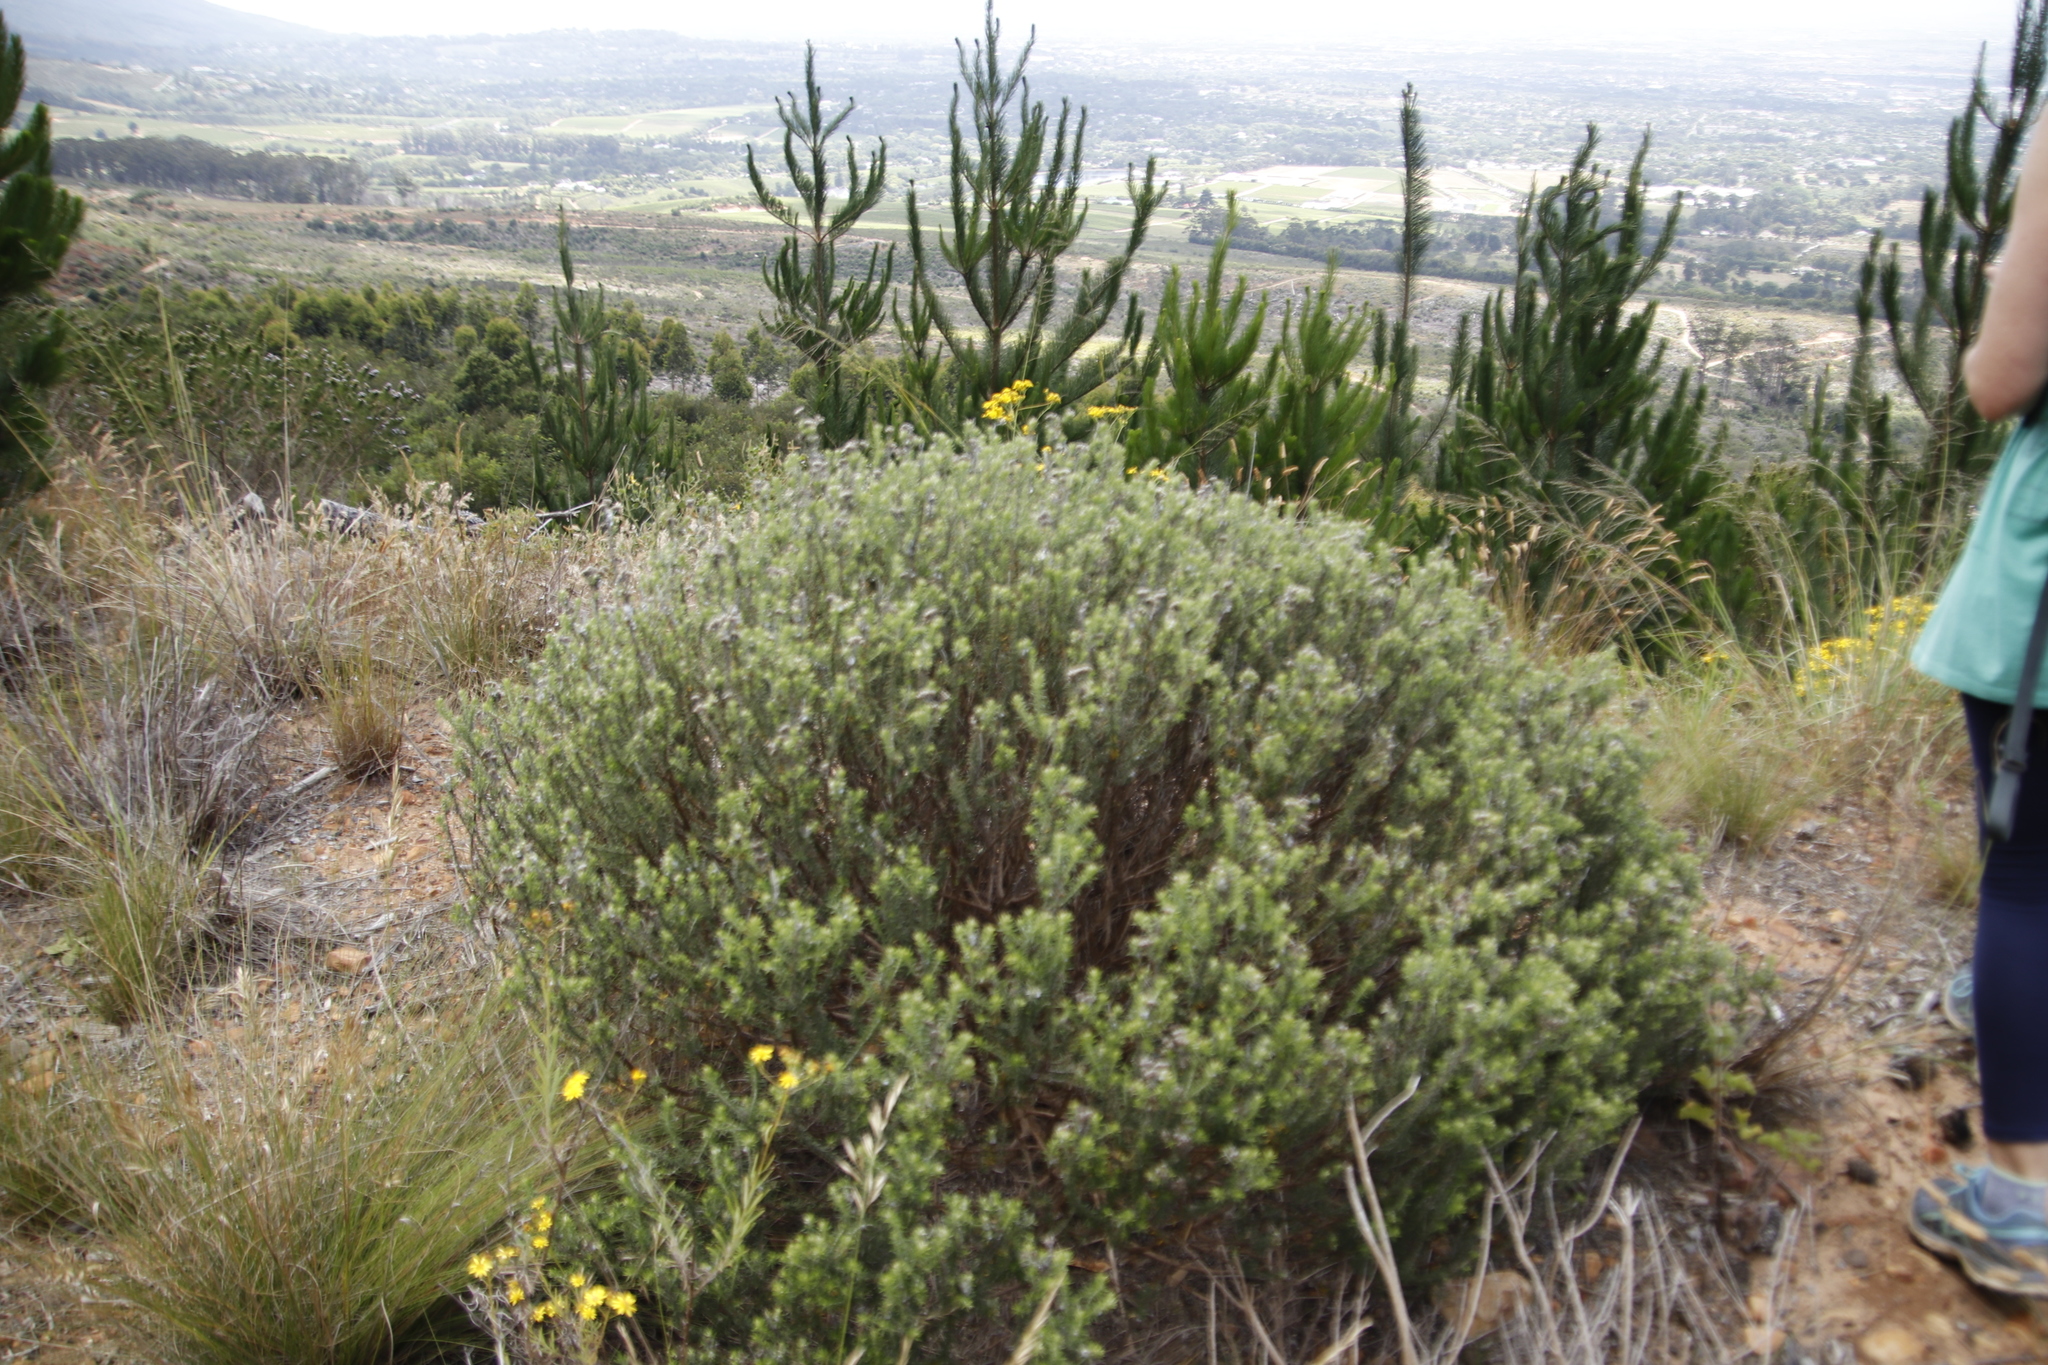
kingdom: Plantae
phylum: Tracheophyta
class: Magnoliopsida
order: Asterales
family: Asteraceae
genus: Metalasia
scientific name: Metalasia densa
